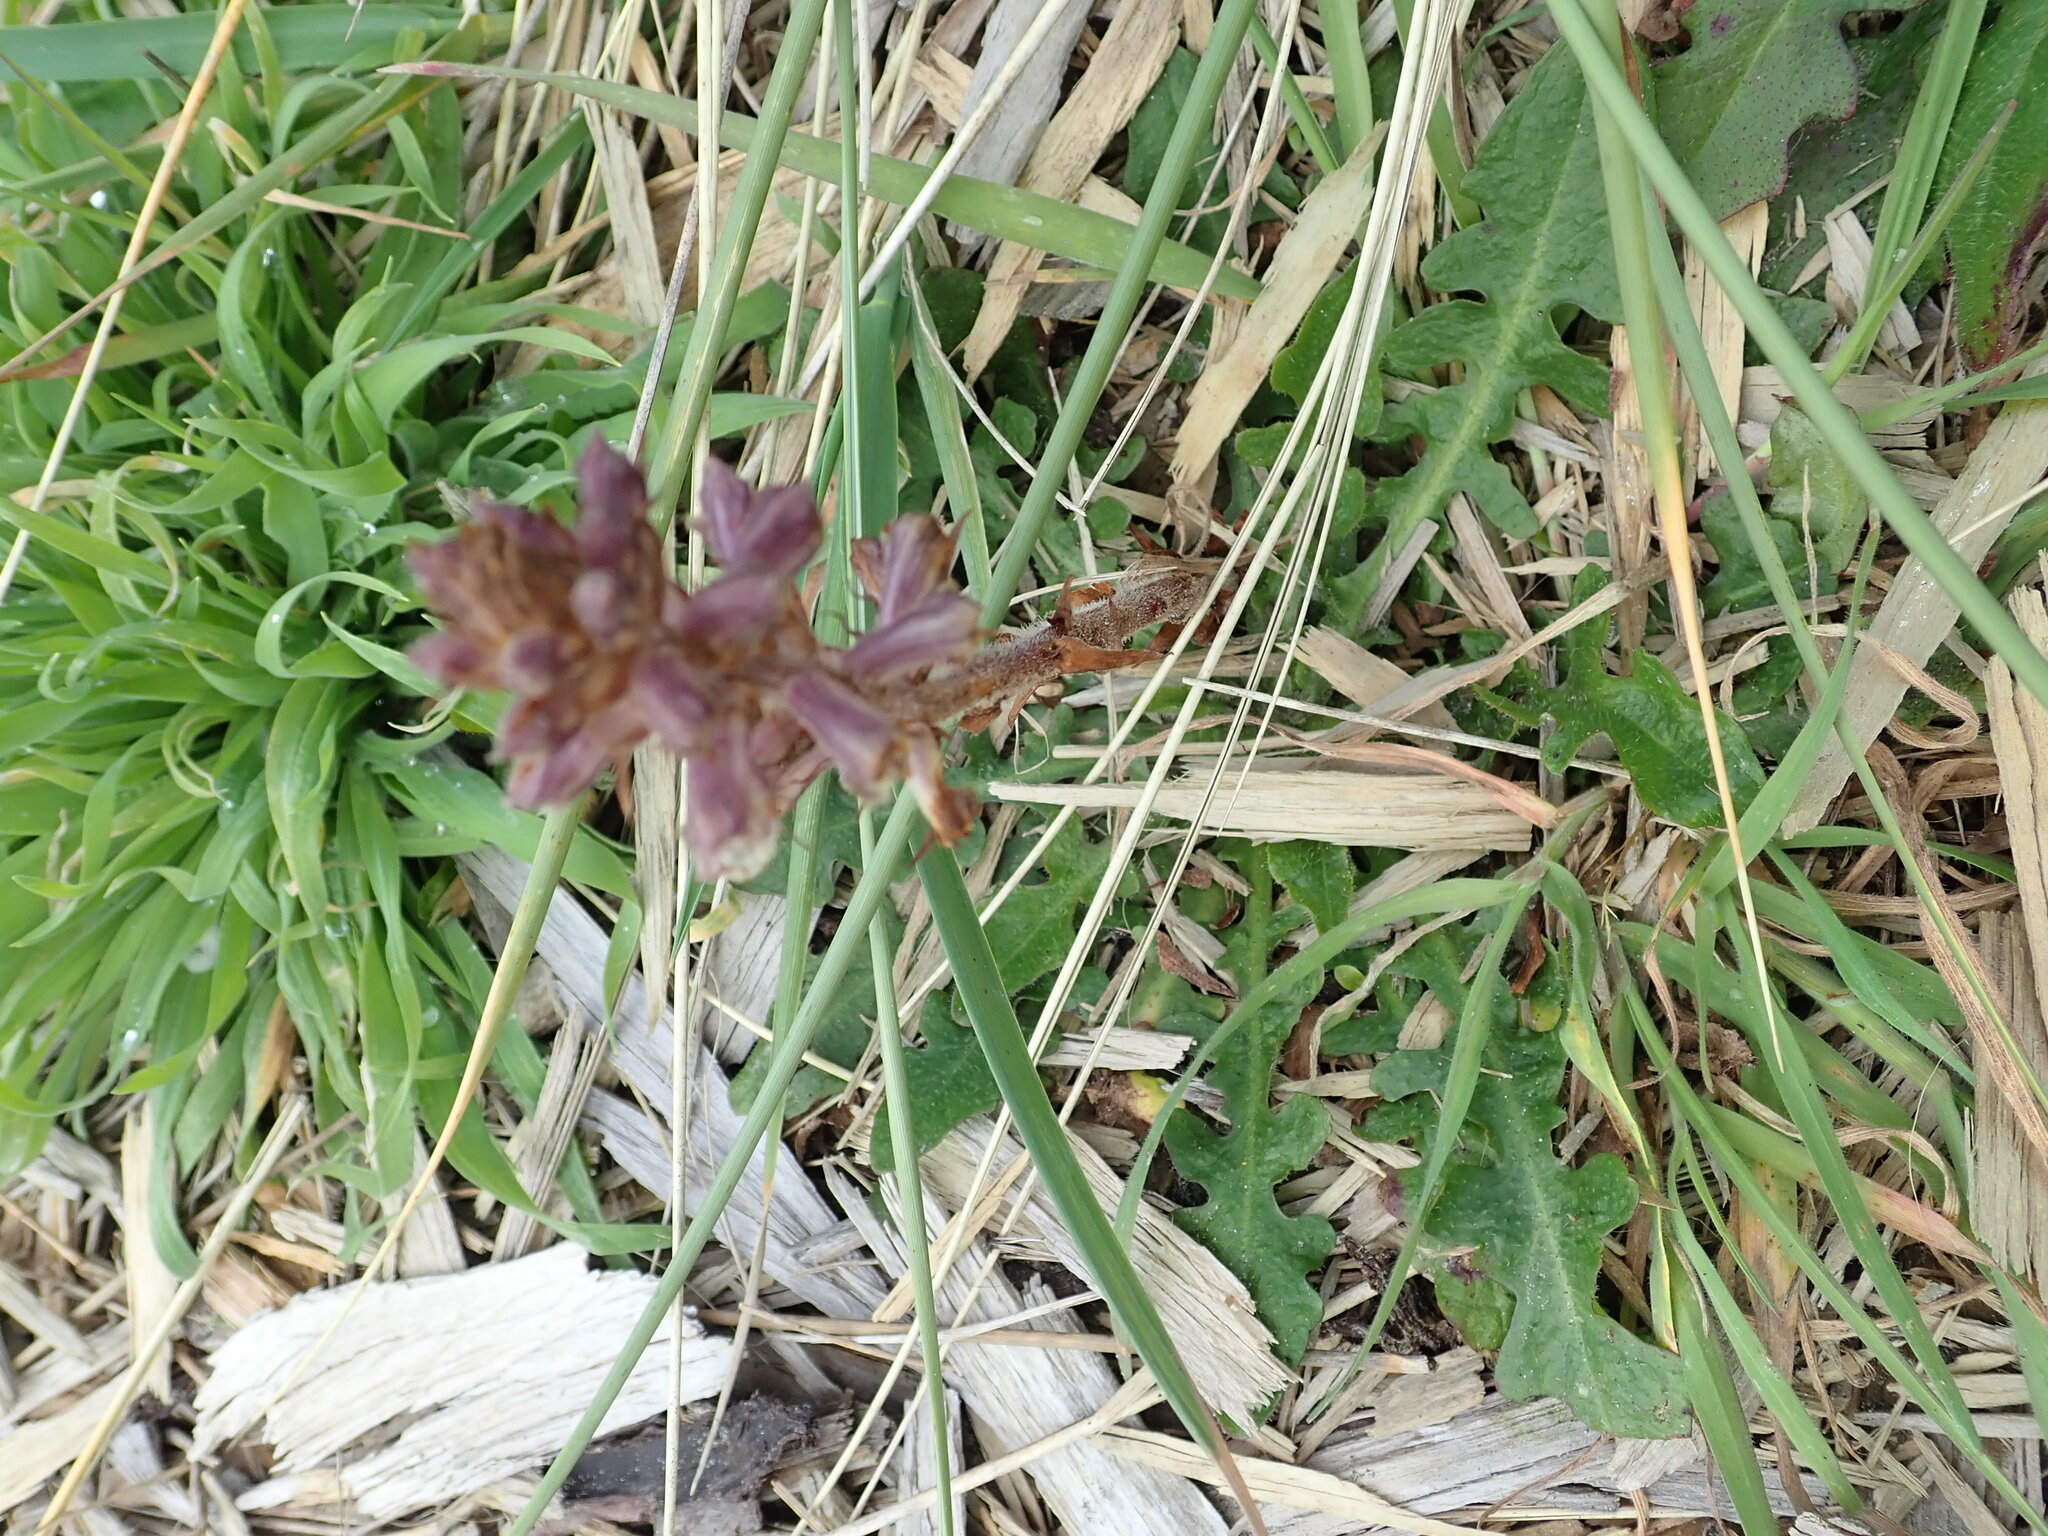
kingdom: Plantae
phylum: Tracheophyta
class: Magnoliopsida
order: Lamiales
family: Orobanchaceae
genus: Orobanche
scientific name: Orobanche minor
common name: Common broomrape
